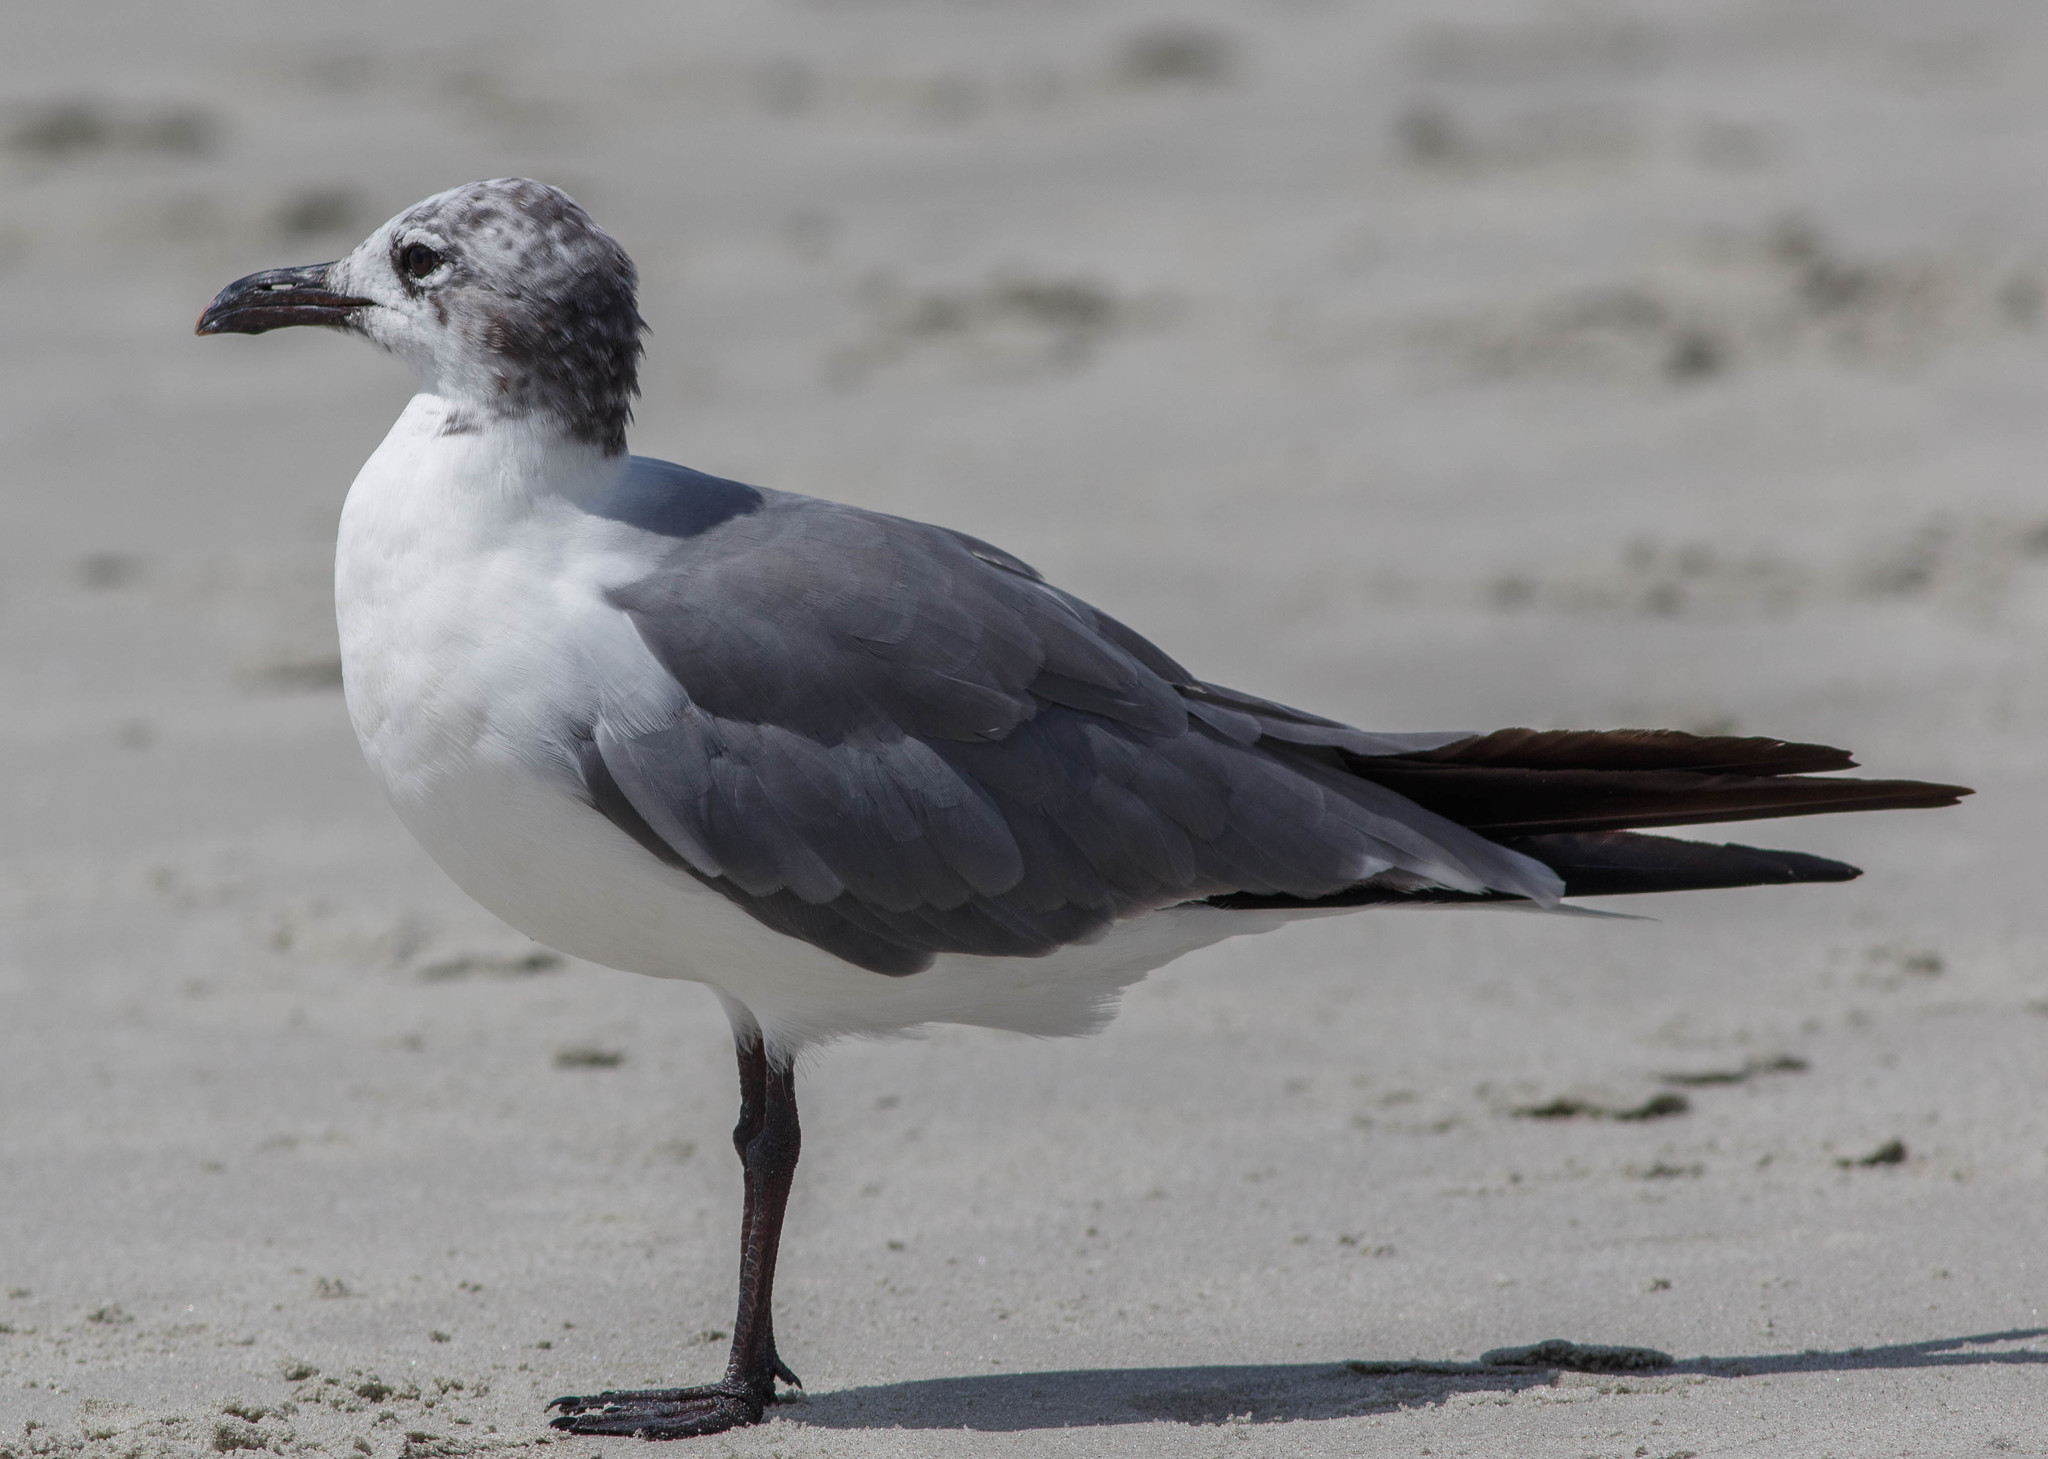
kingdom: Animalia
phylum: Chordata
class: Aves
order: Charadriiformes
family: Laridae
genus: Leucophaeus
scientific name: Leucophaeus atricilla
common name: Laughing gull
